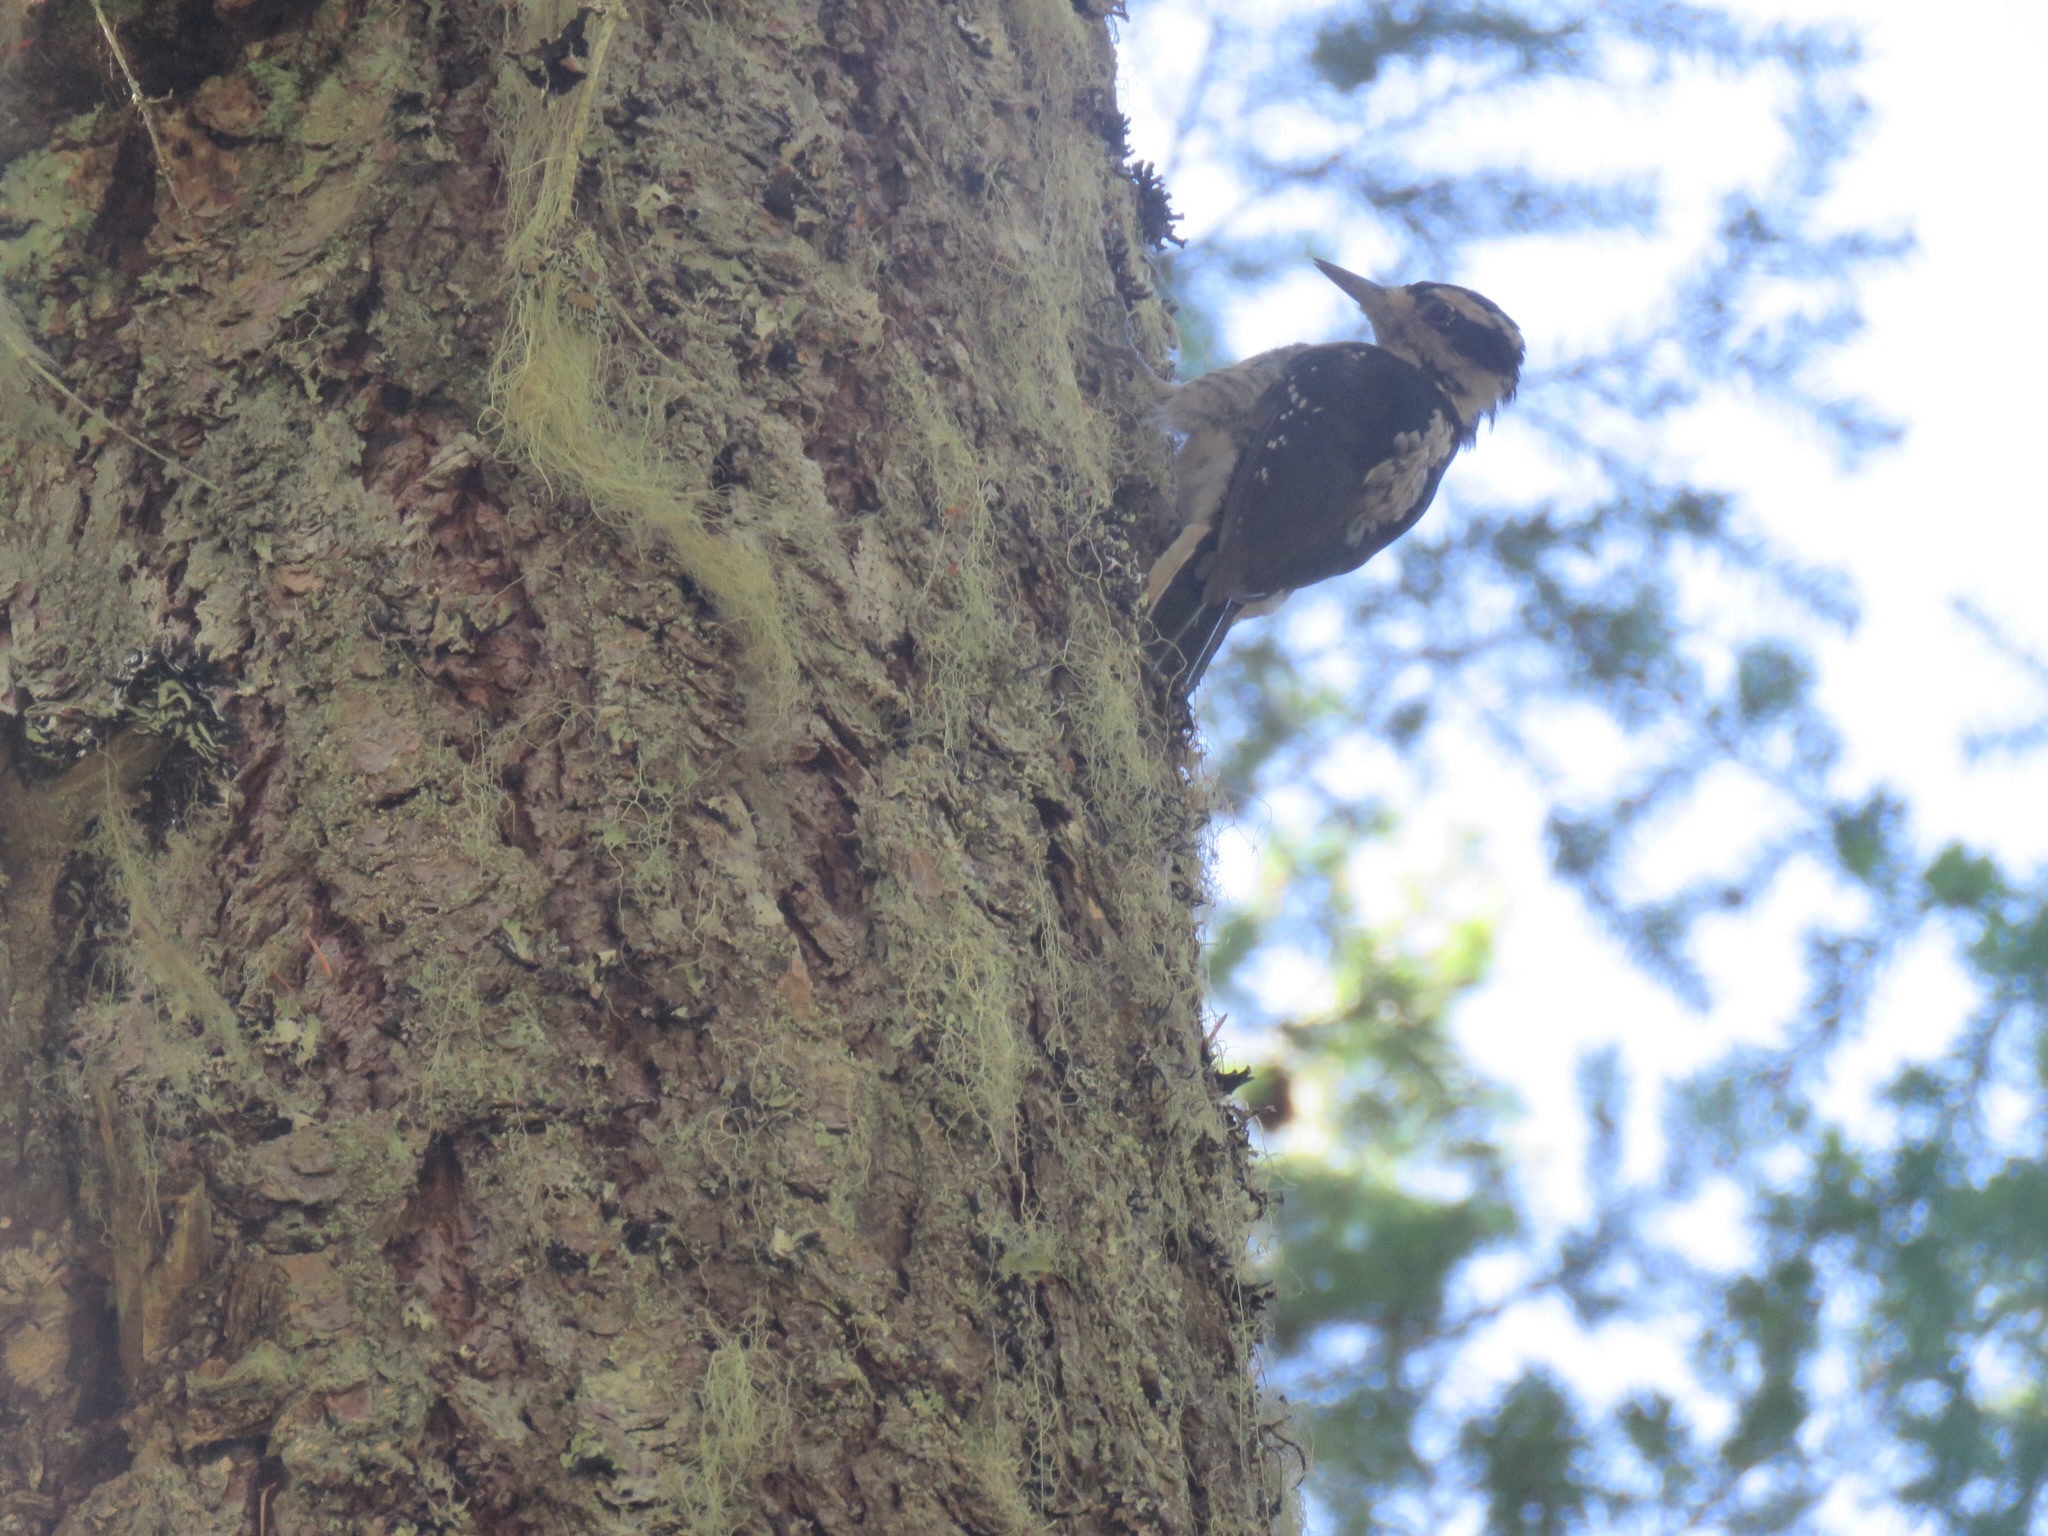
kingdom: Animalia
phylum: Chordata
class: Aves
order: Piciformes
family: Picidae
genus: Leuconotopicus
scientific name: Leuconotopicus villosus
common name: Hairy woodpecker
